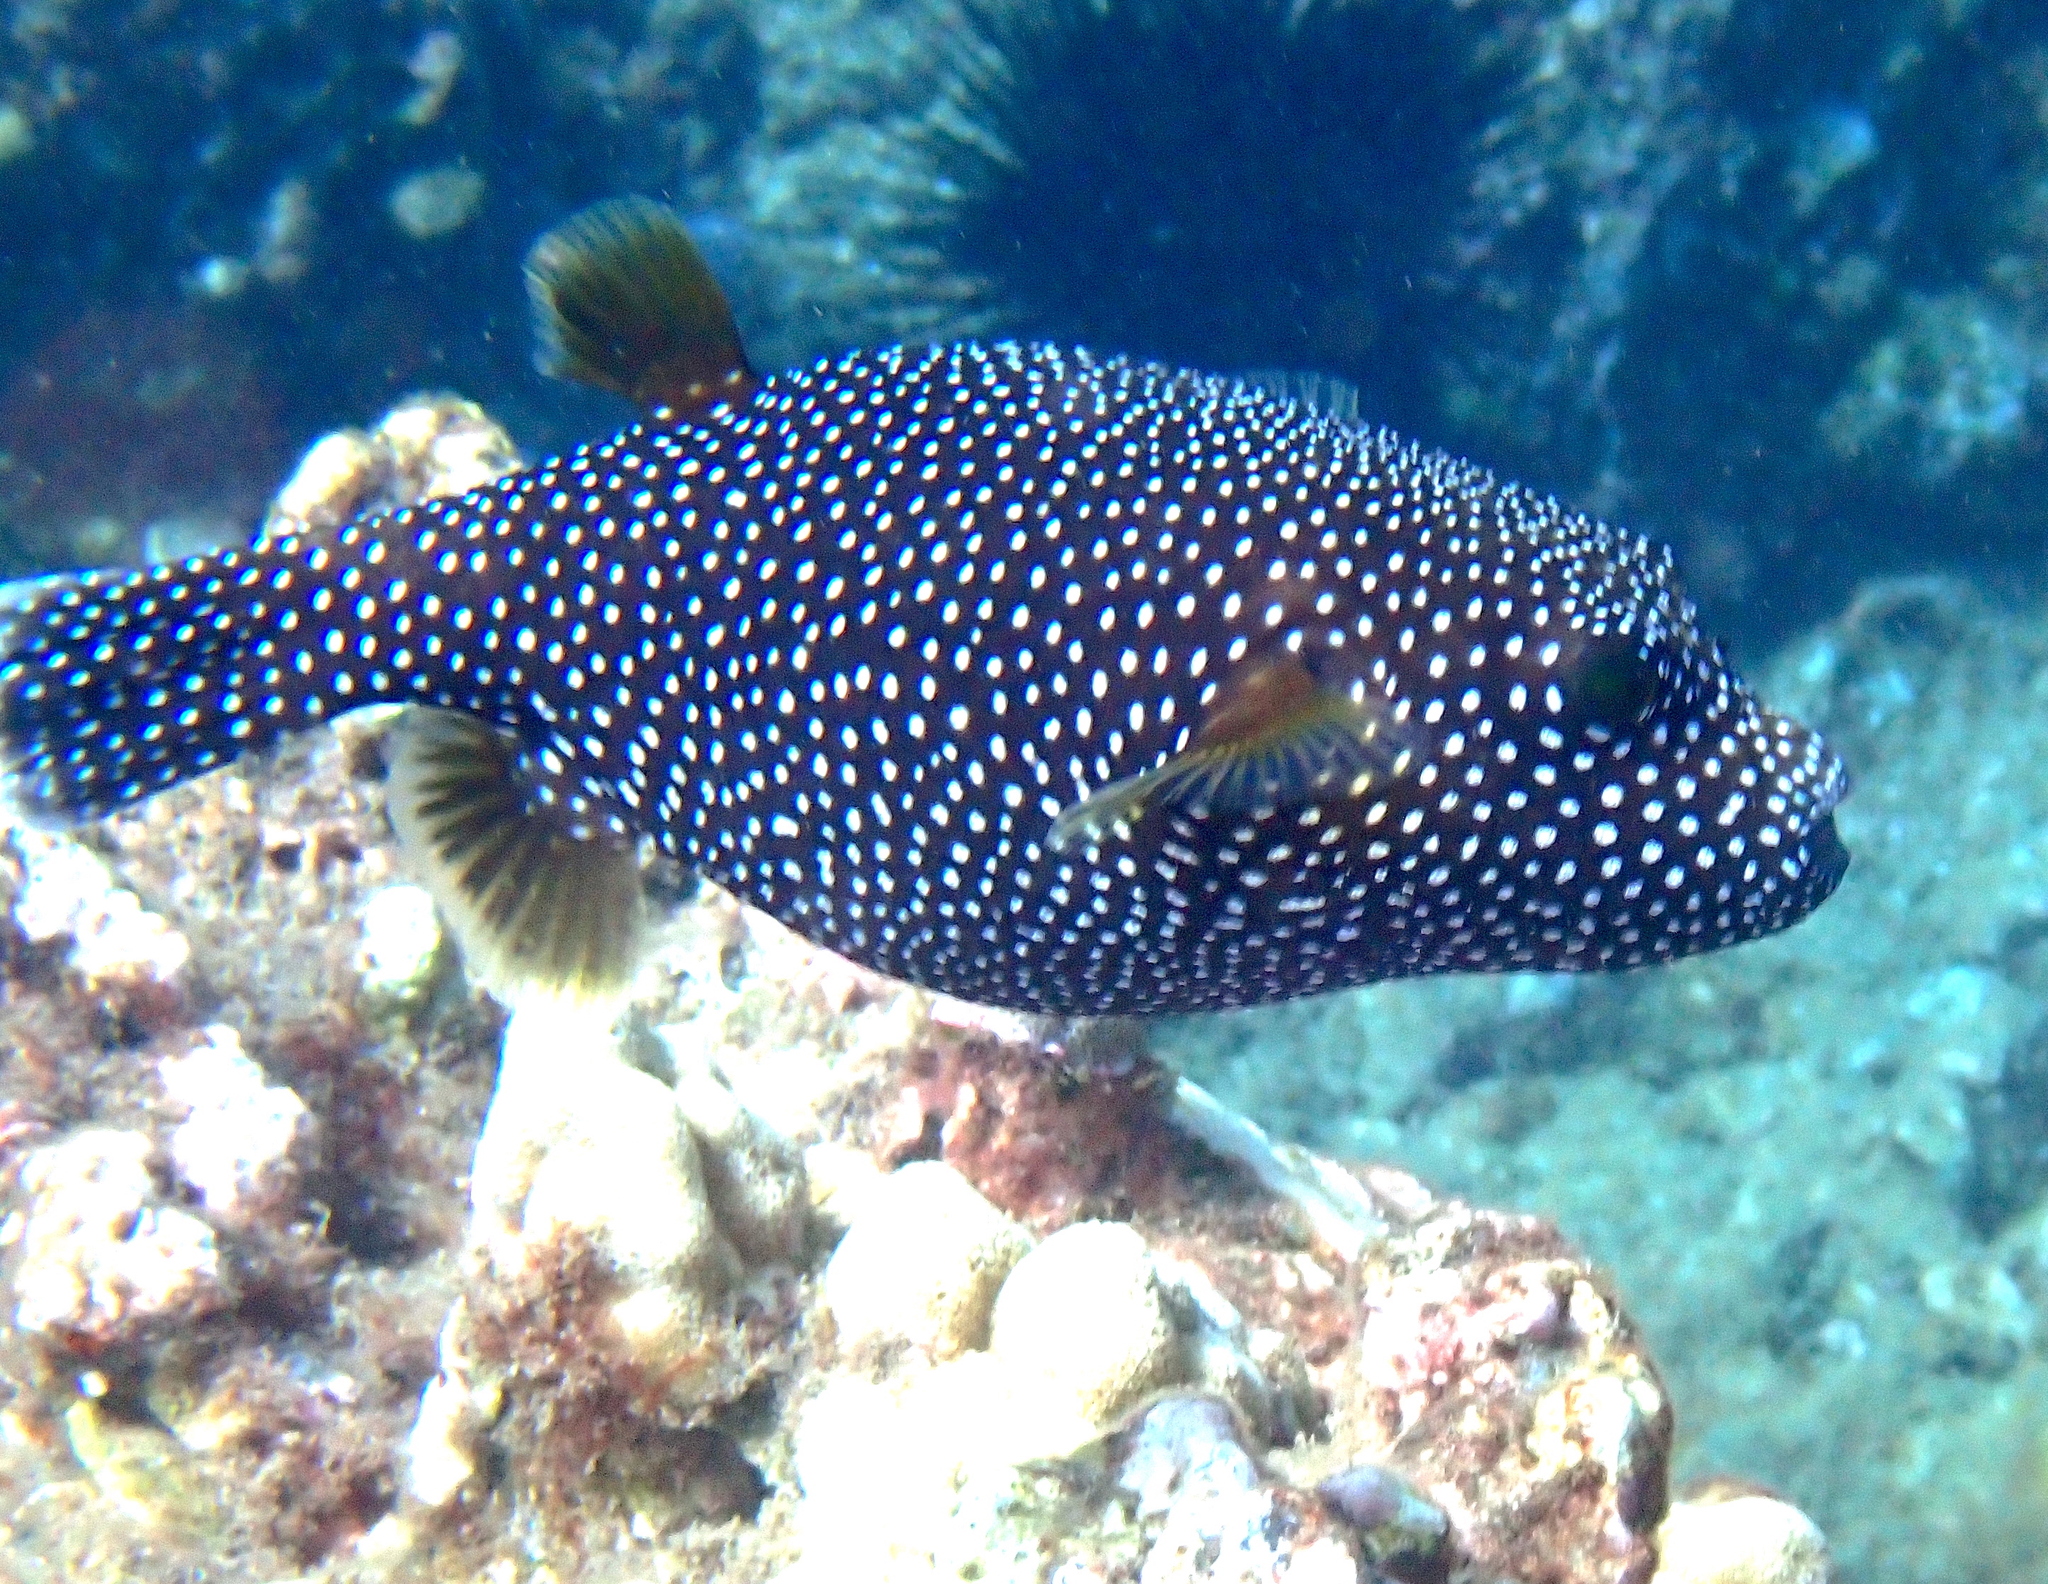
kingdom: Animalia
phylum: Chordata
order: Tetraodontiformes
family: Tetraodontidae
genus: Arothron
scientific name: Arothron meleagris
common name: Guinea-fowl pufferfish
